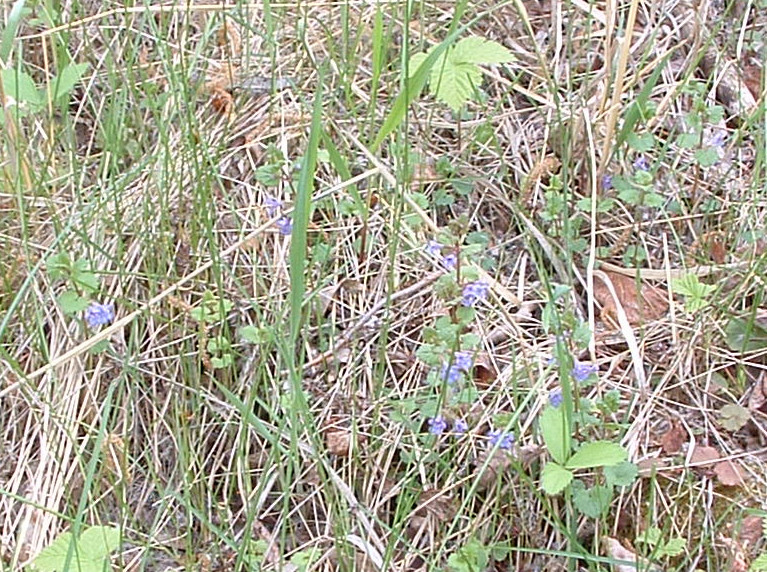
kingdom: Plantae
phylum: Tracheophyta
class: Magnoliopsida
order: Lamiales
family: Lamiaceae
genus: Glechoma
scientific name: Glechoma hederacea
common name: Ground ivy
